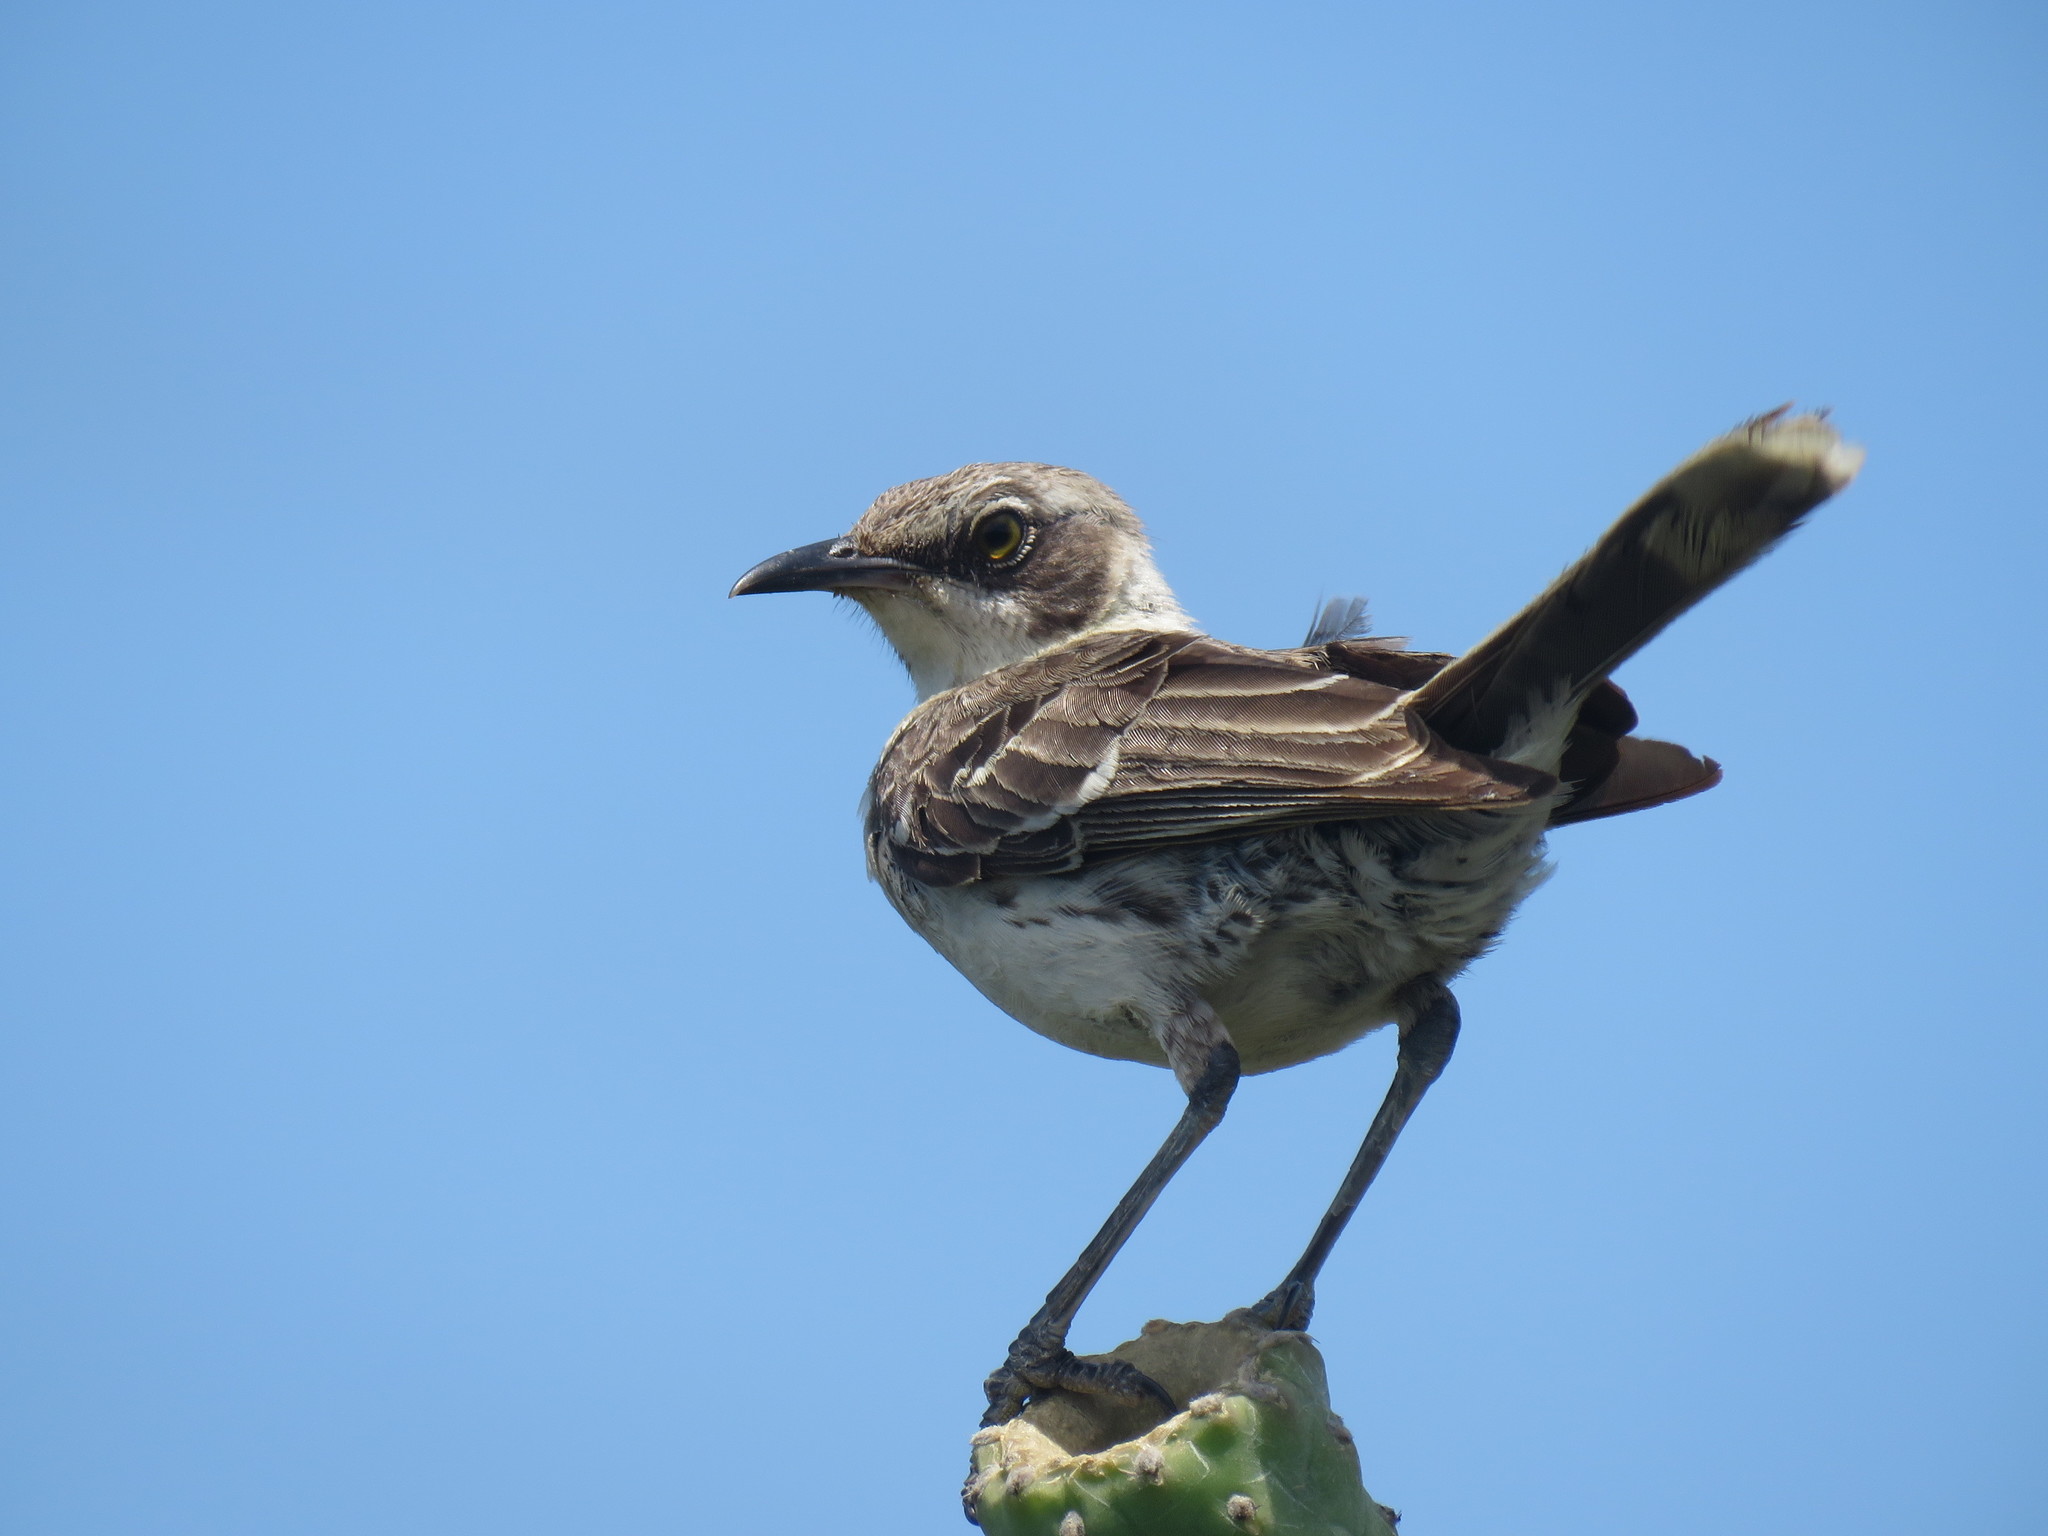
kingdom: Animalia
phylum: Chordata
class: Aves
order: Passeriformes
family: Mimidae
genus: Mimus
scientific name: Mimus parvulus
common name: Galapagos mockingbird
